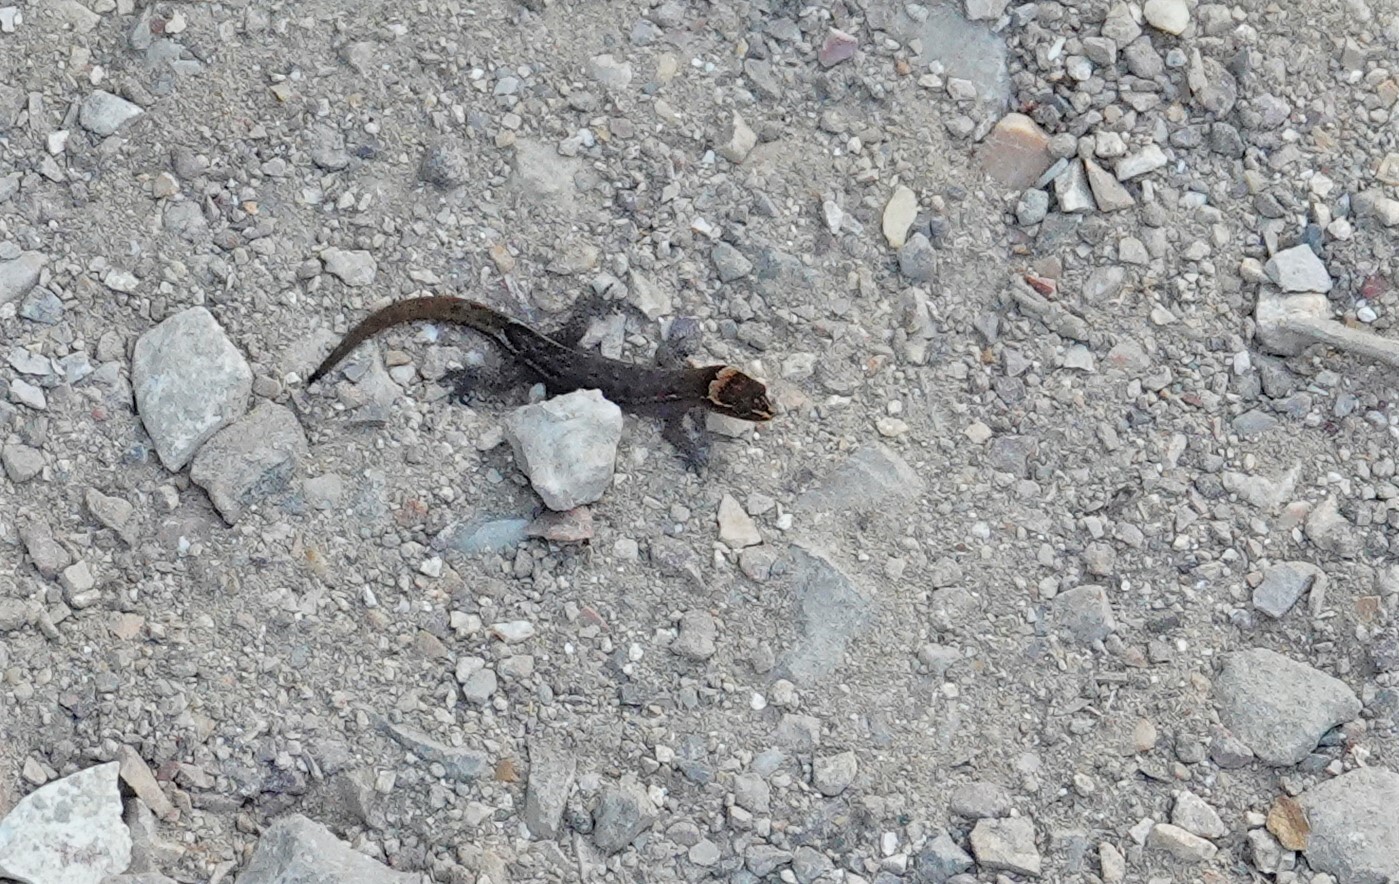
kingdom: Animalia
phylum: Chordata
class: Squamata
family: Sphaerodactylidae
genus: Lepidoblepharis
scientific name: Lepidoblepharis sanctaemartae
